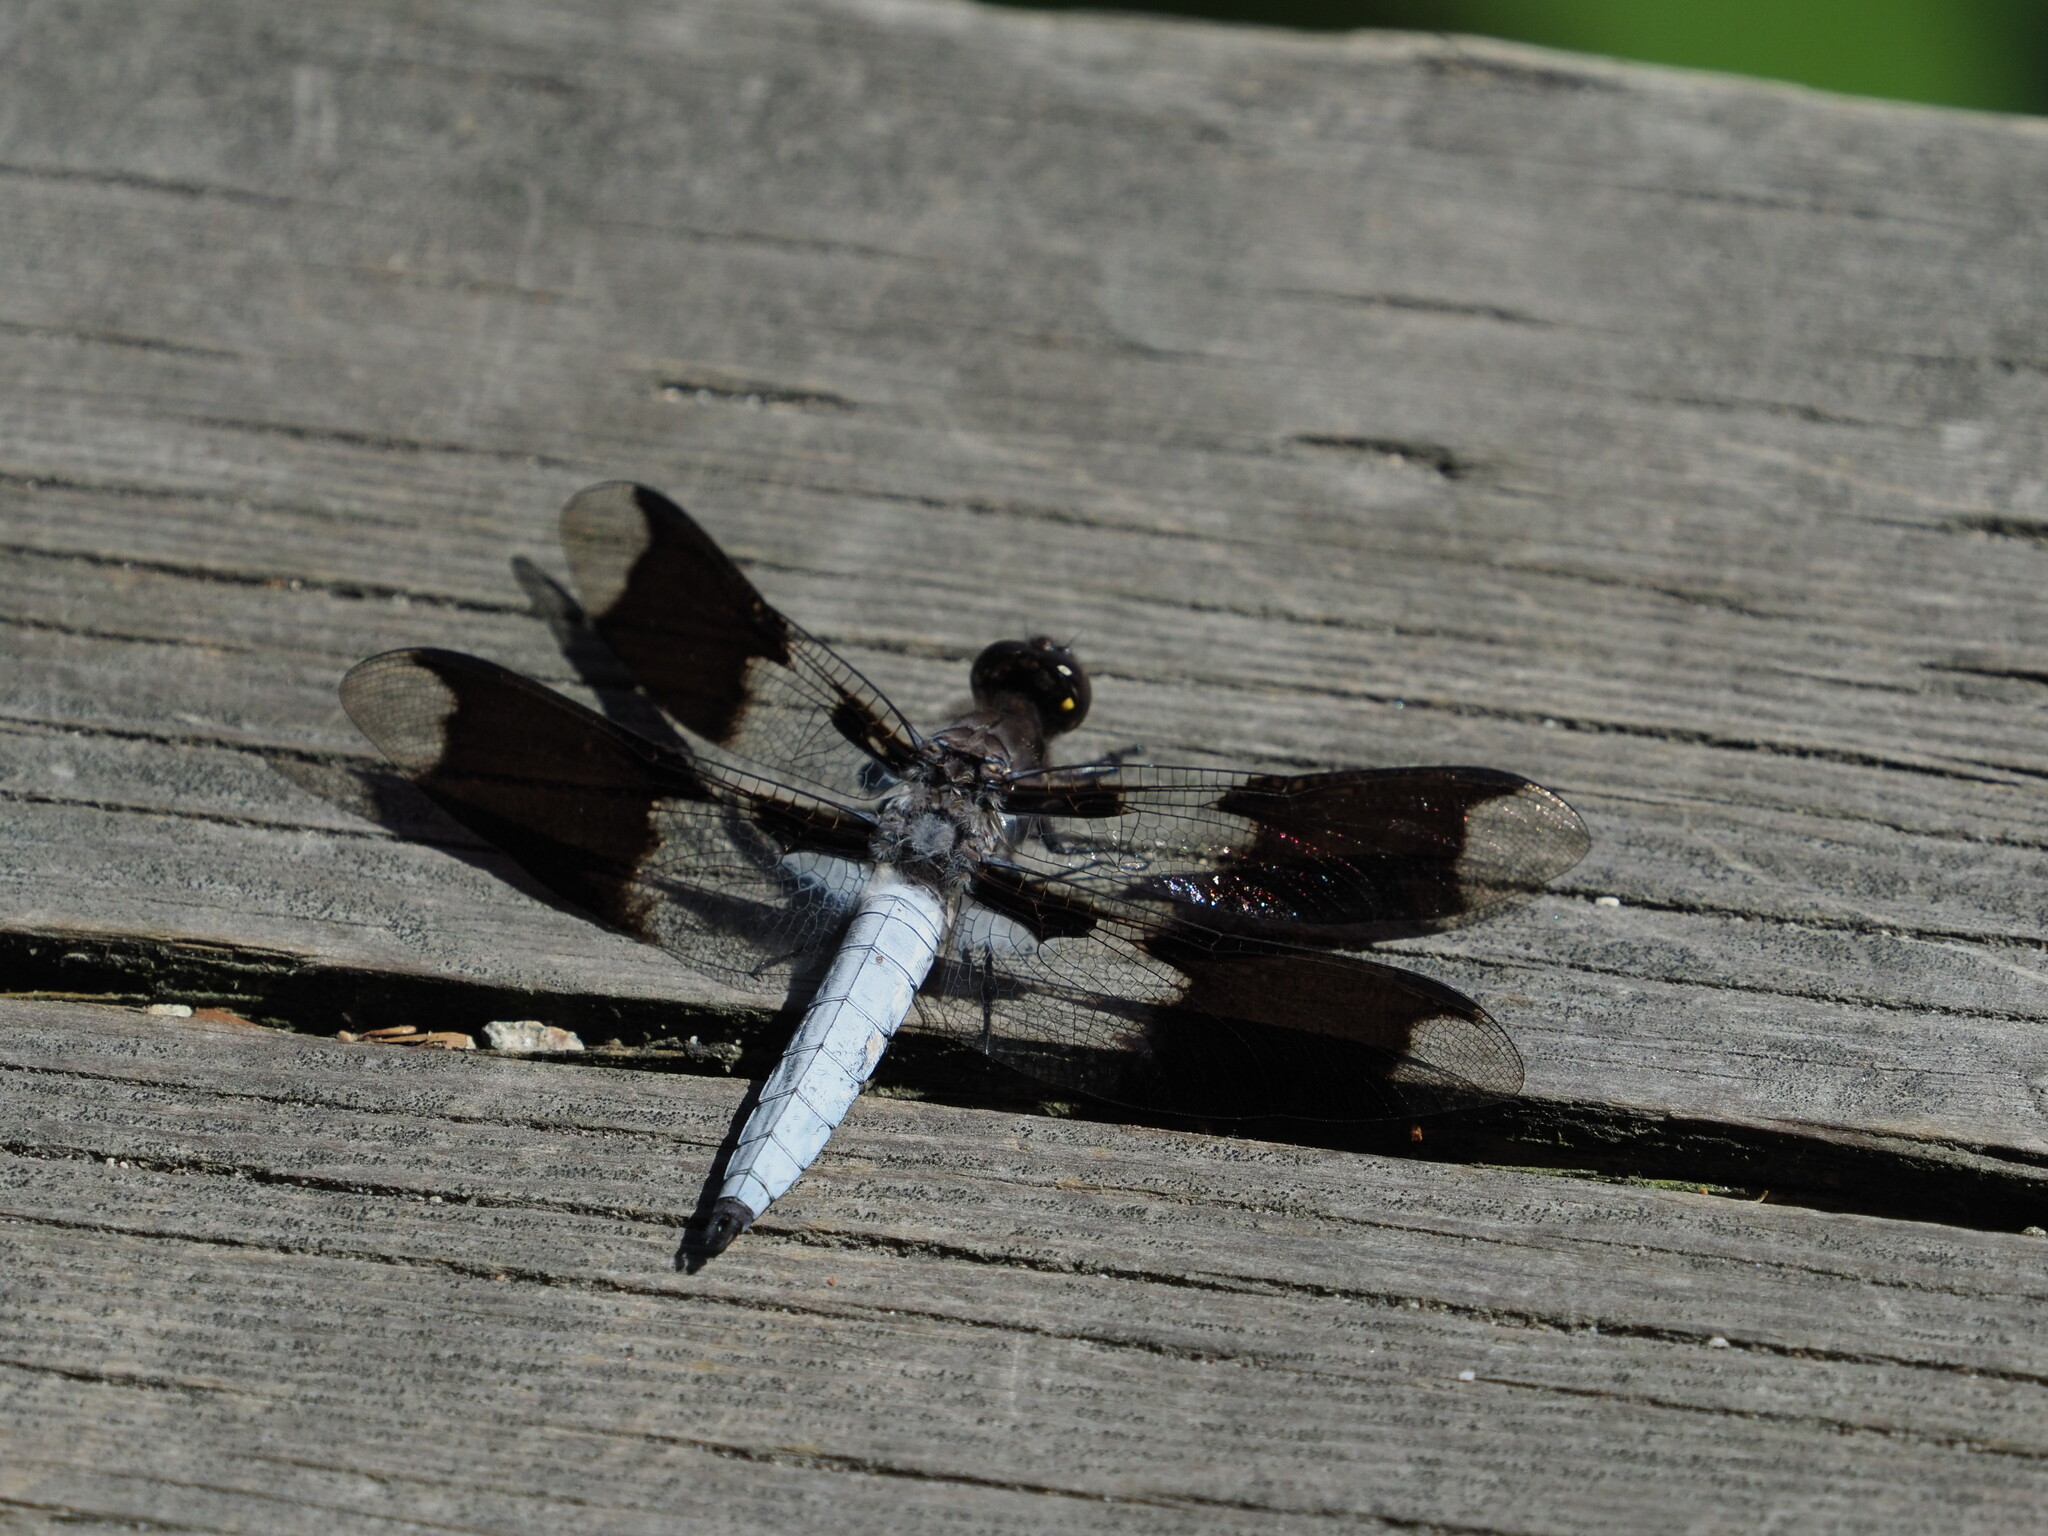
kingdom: Animalia
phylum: Arthropoda
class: Insecta
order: Odonata
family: Libellulidae
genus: Plathemis
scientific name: Plathemis lydia
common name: Common whitetail
